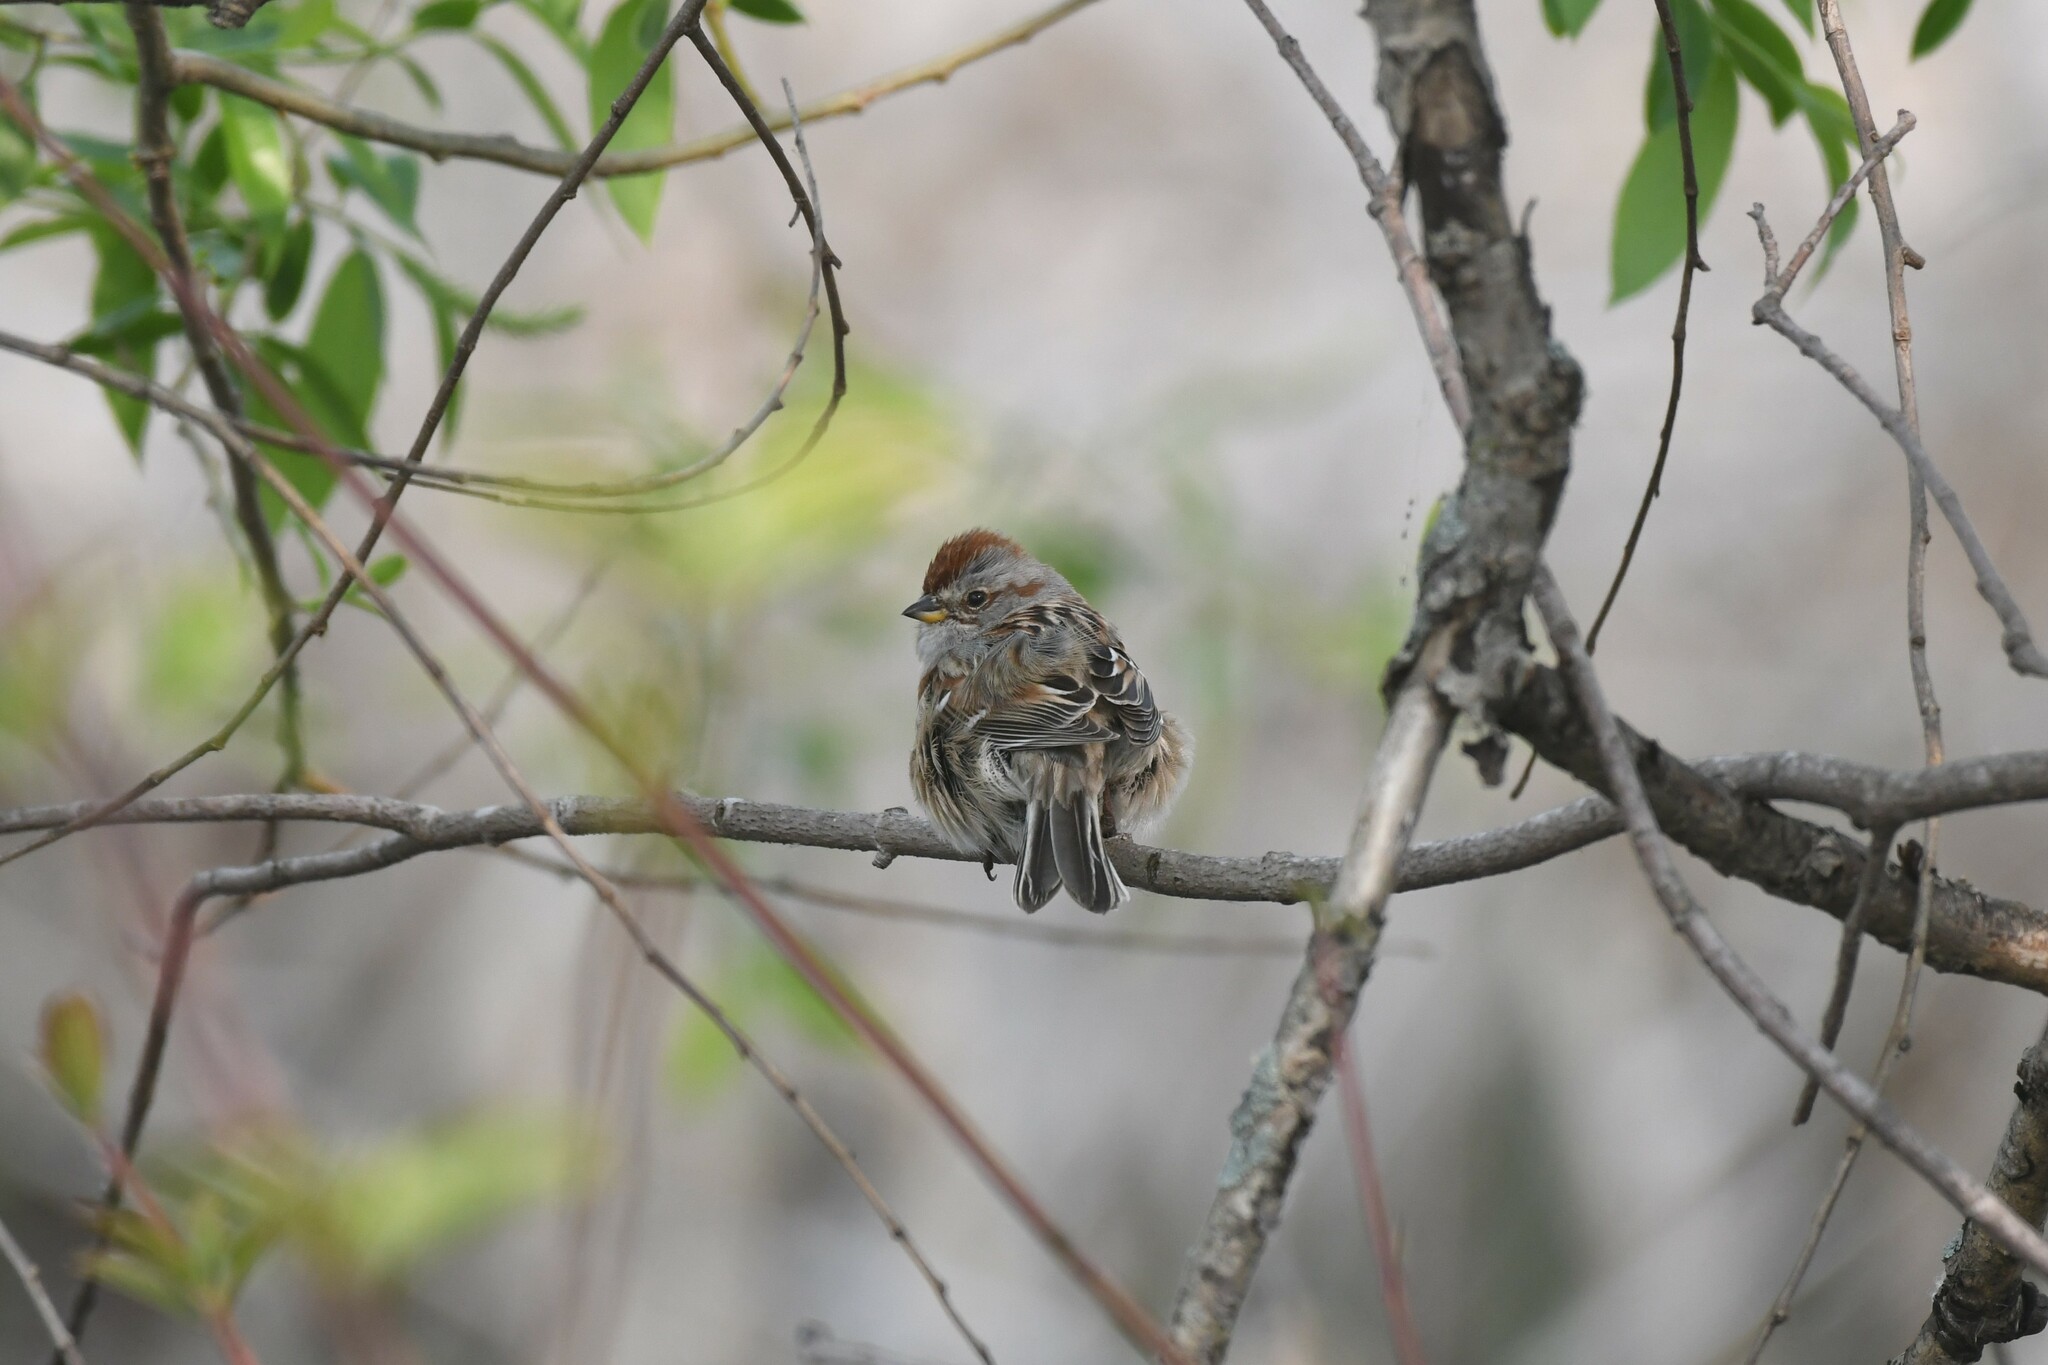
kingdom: Animalia
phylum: Chordata
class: Aves
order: Passeriformes
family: Passerellidae
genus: Spizelloides
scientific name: Spizelloides arborea
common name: American tree sparrow
